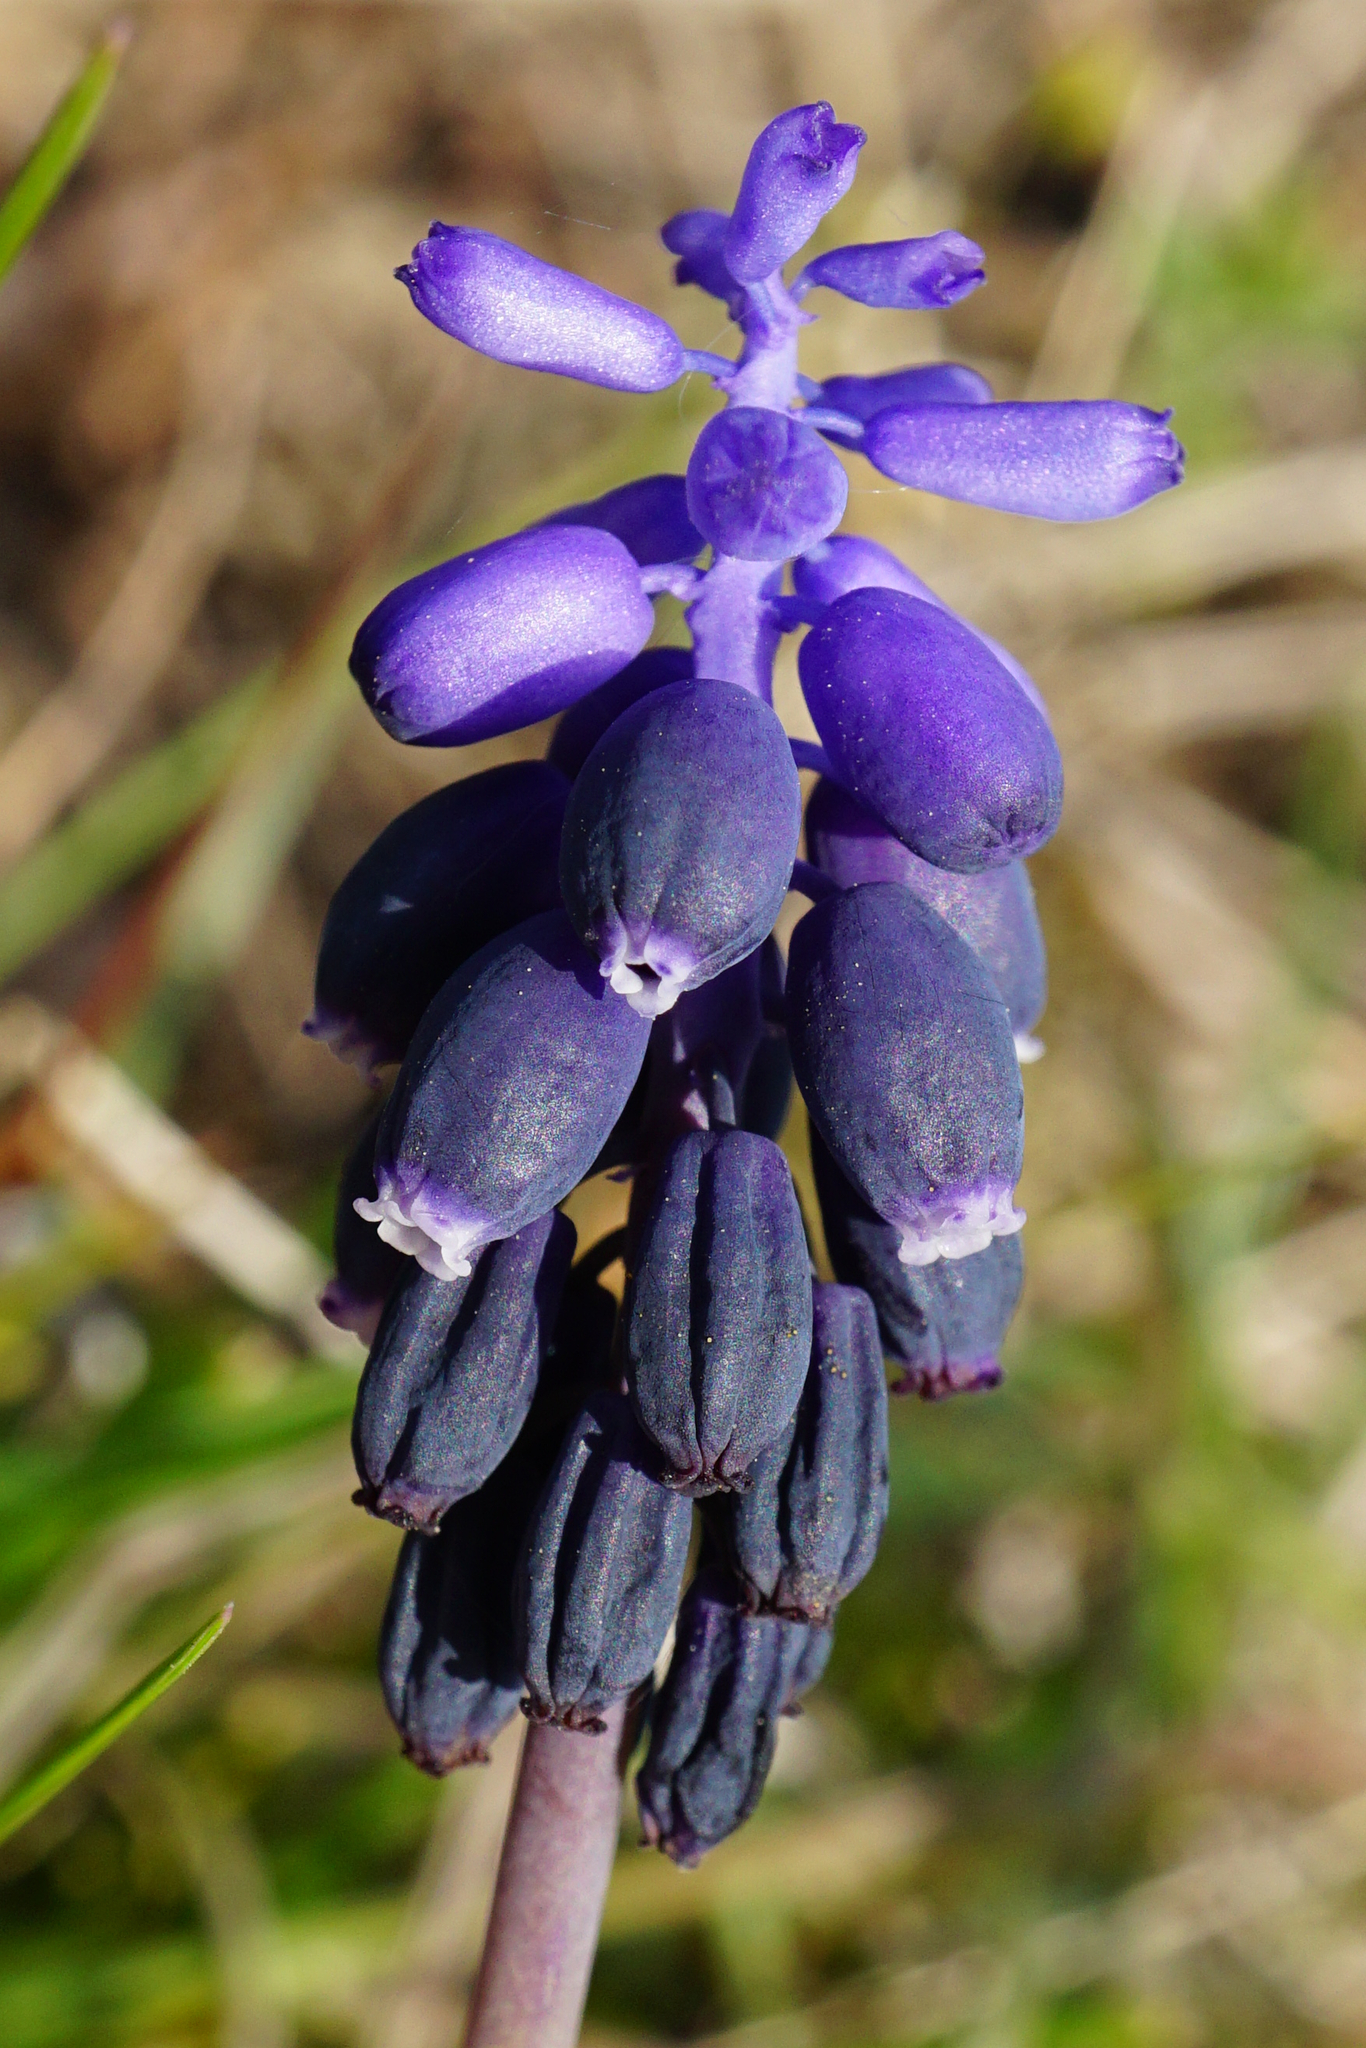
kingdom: Plantae
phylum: Tracheophyta
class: Liliopsida
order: Asparagales
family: Asparagaceae
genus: Muscari
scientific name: Muscari neglectum
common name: Grape-hyacinth
